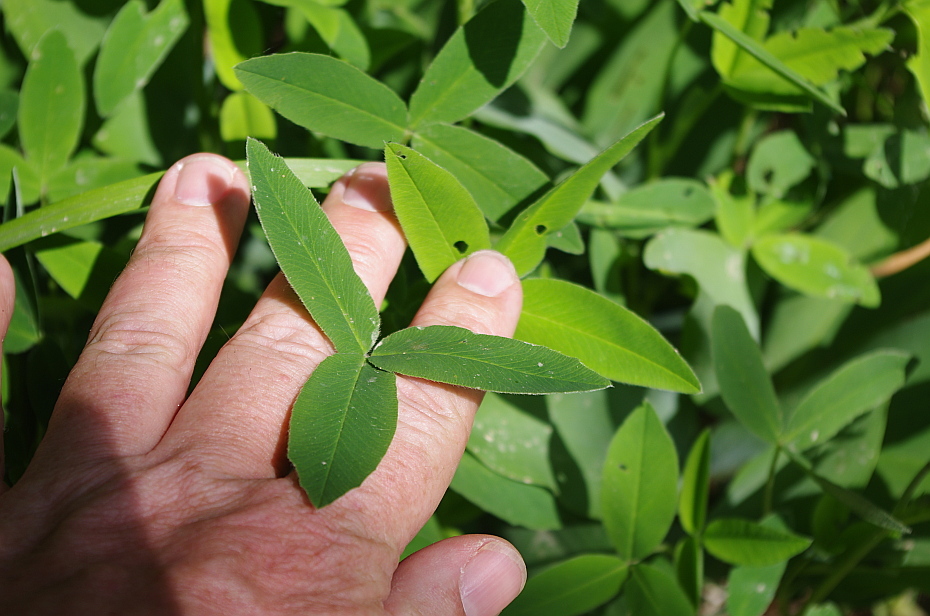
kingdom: Plantae
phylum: Tracheophyta
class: Magnoliopsida
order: Fabales
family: Fabaceae
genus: Trifolium
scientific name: Trifolium medium
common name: Zigzag clover
